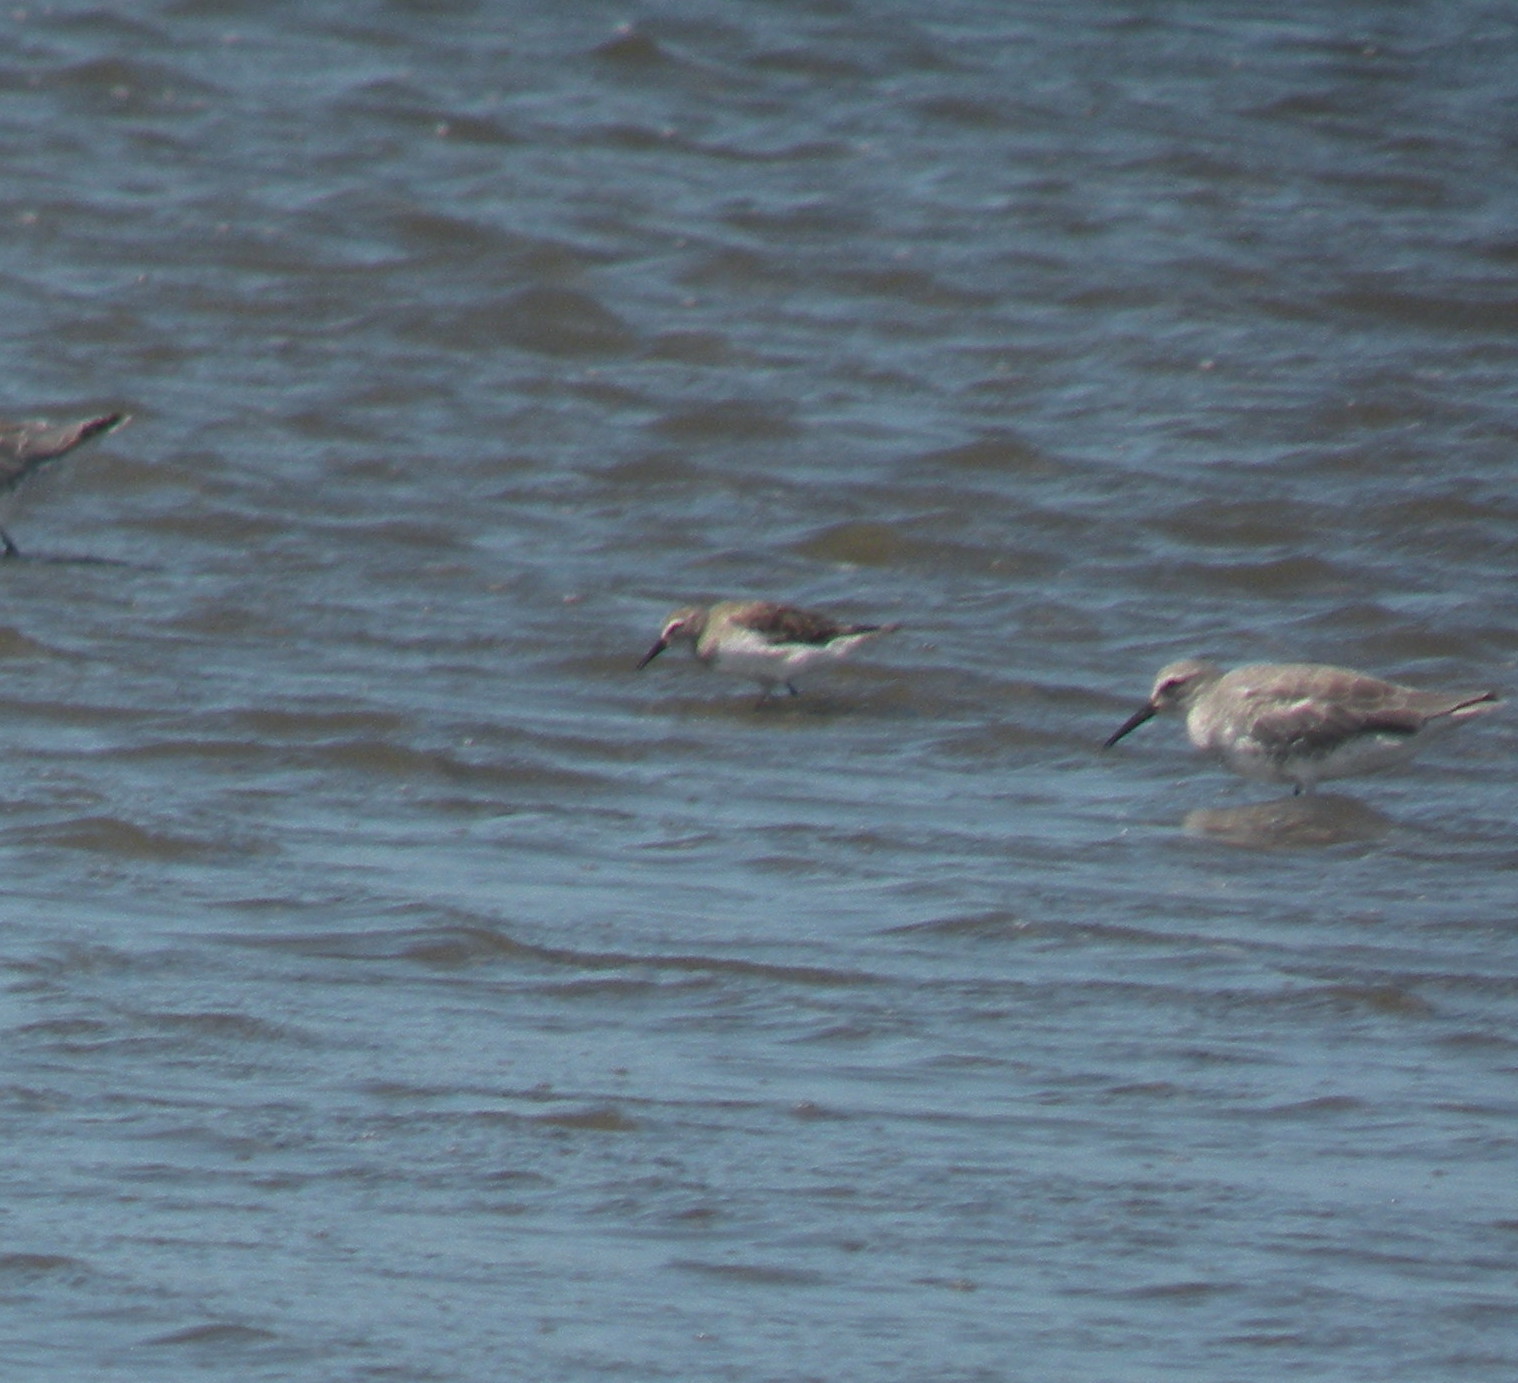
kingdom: Animalia
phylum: Chordata
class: Aves
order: Charadriiformes
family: Scolopacidae
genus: Calidris
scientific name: Calidris himantopus
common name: Stilt sandpiper
